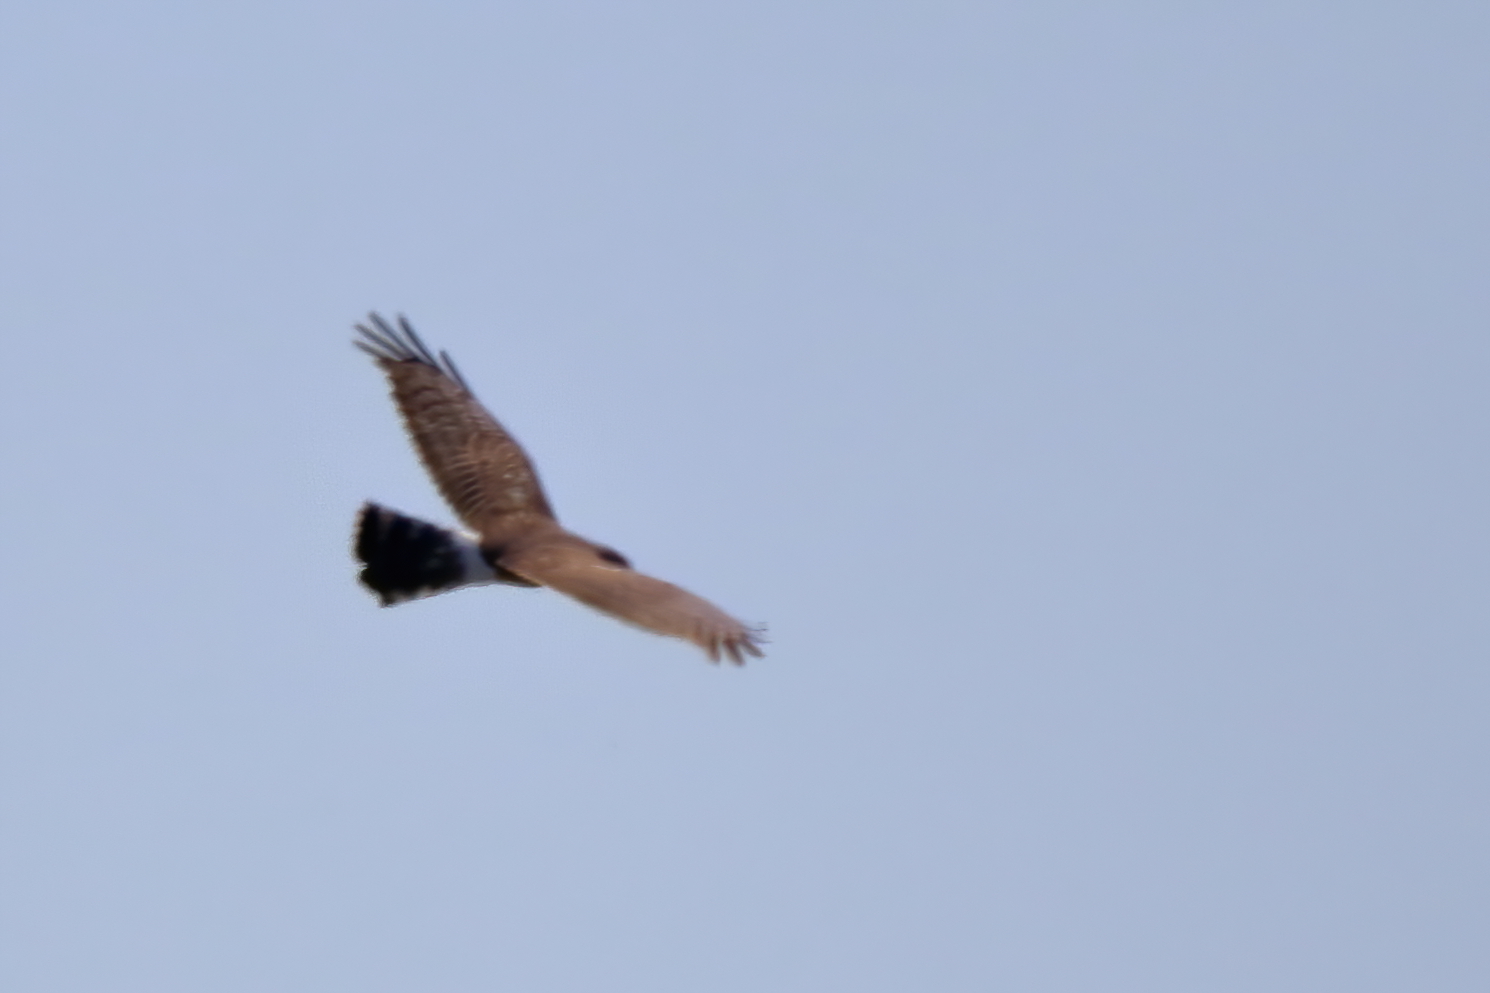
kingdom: Animalia
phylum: Chordata
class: Aves
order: Accipitriformes
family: Accipitridae
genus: Circus
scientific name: Circus cyaneus
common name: Hen harrier
